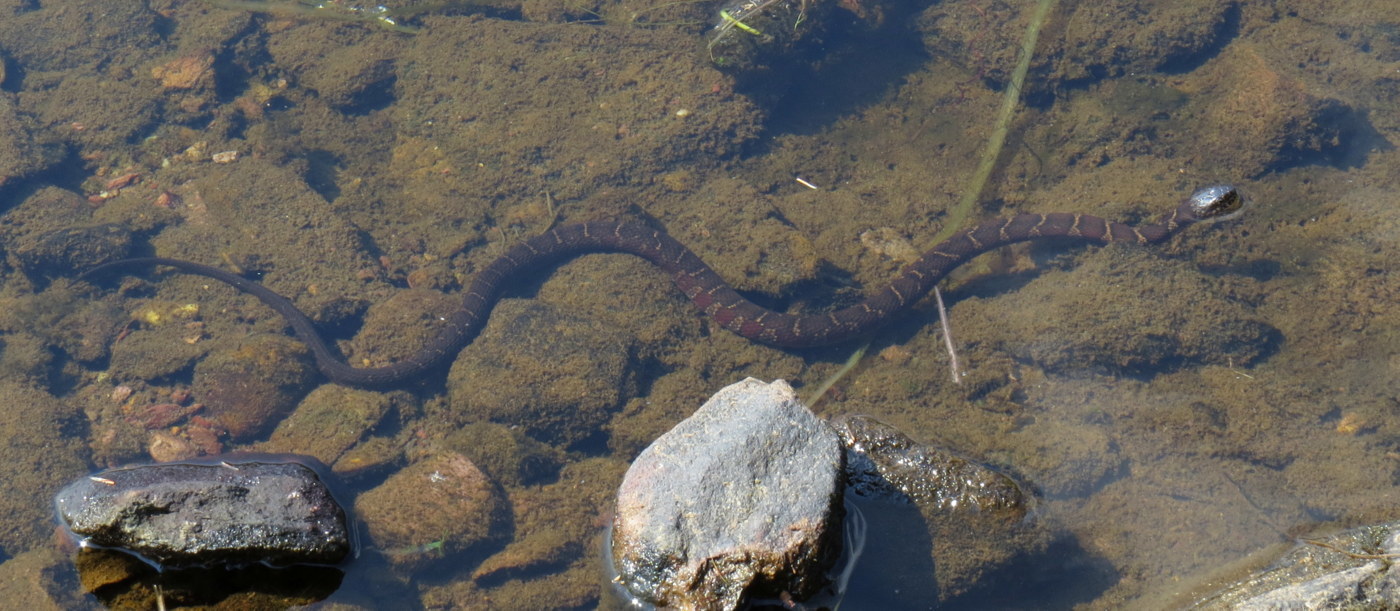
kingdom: Animalia
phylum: Chordata
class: Squamata
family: Colubridae
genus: Nerodia
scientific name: Nerodia sipedon
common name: Northern water snake
